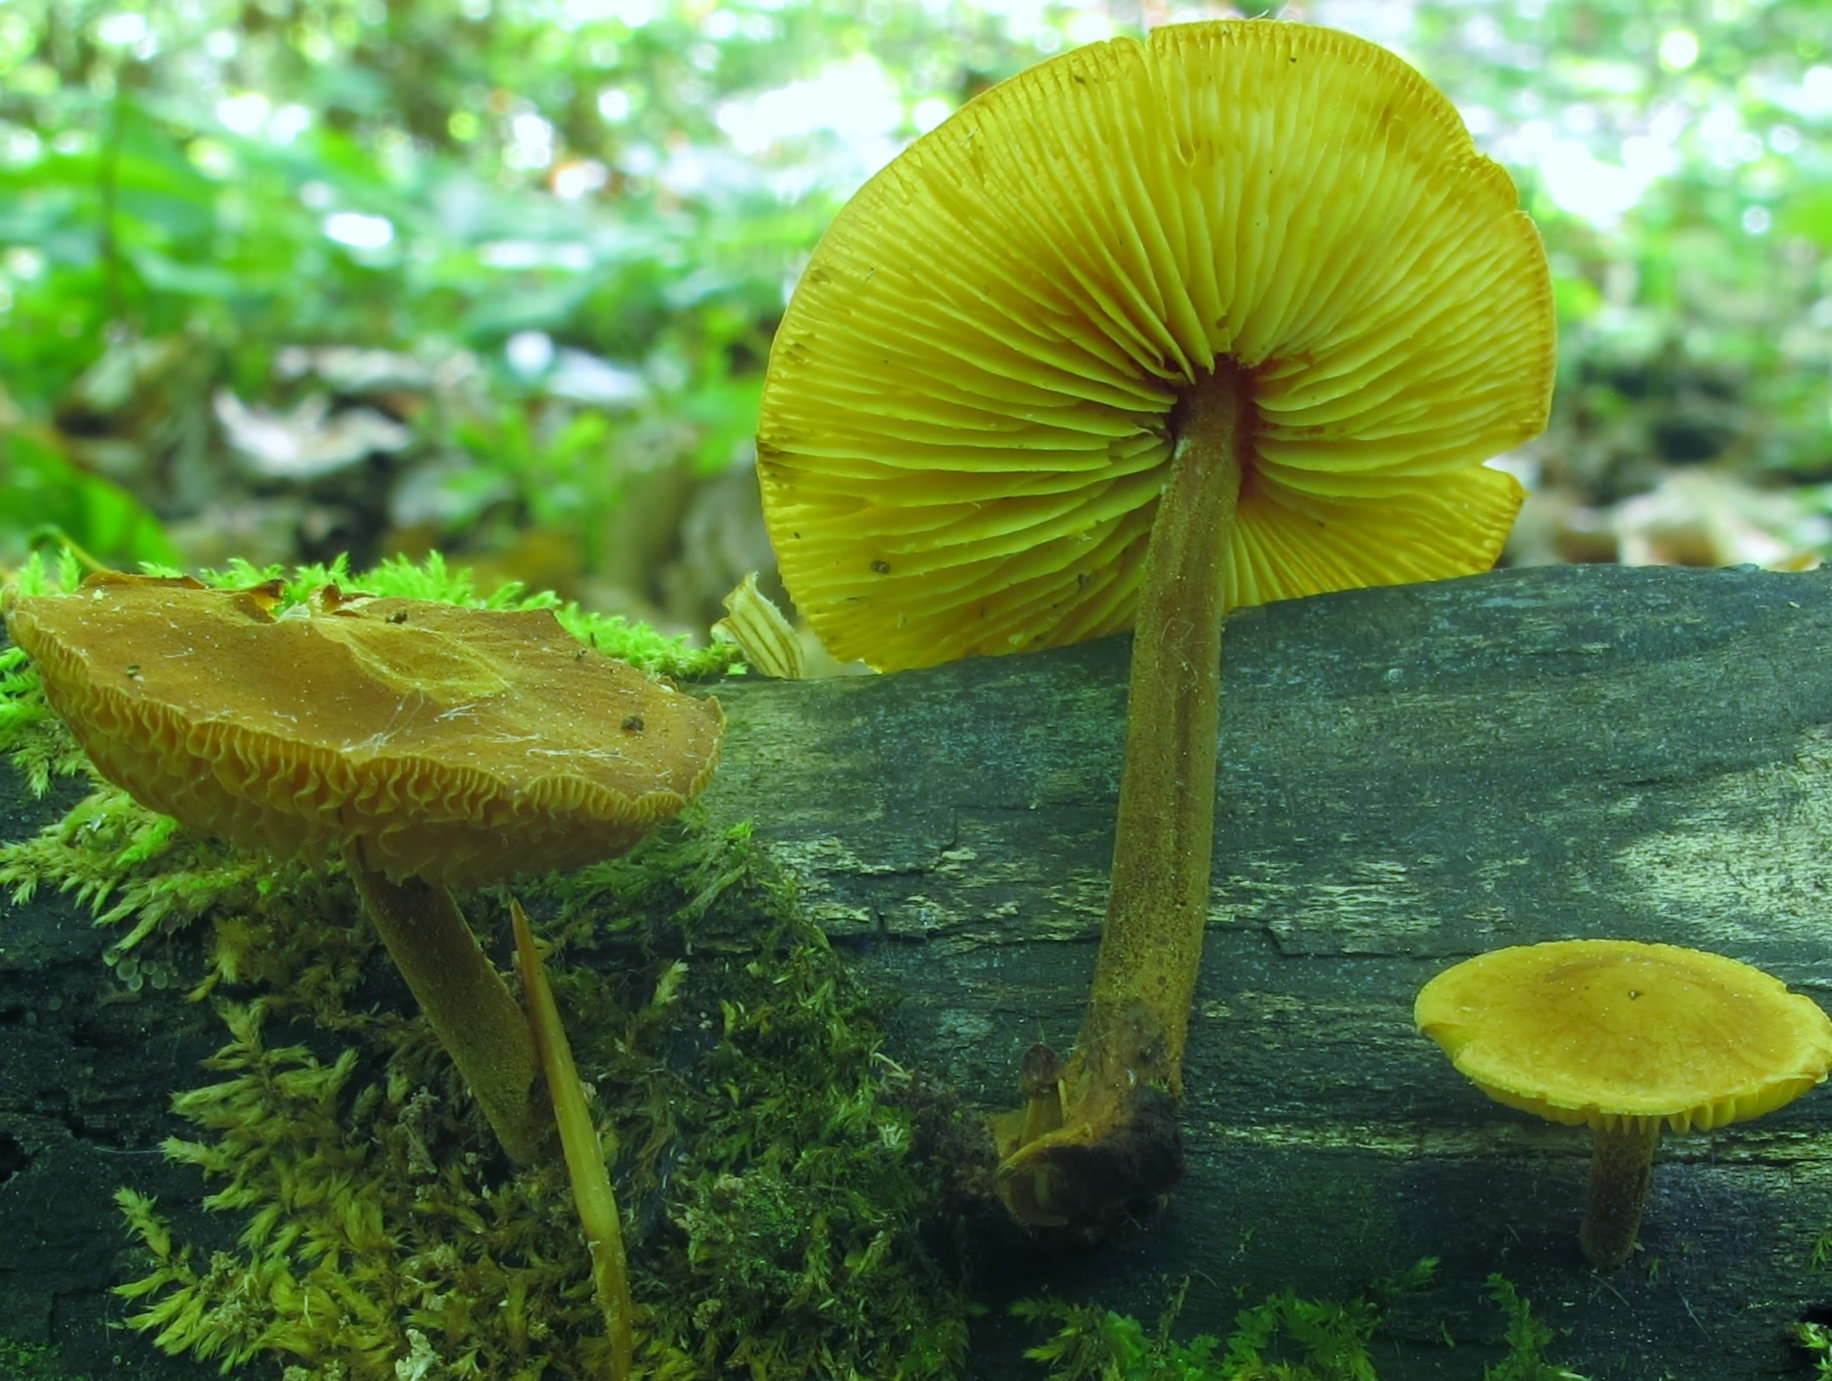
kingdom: Fungi
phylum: Basidiomycota
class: Agaricomycetes
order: Agaricales
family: Mycenaceae
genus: Xeromphalina
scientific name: Xeromphalina tenuipes
